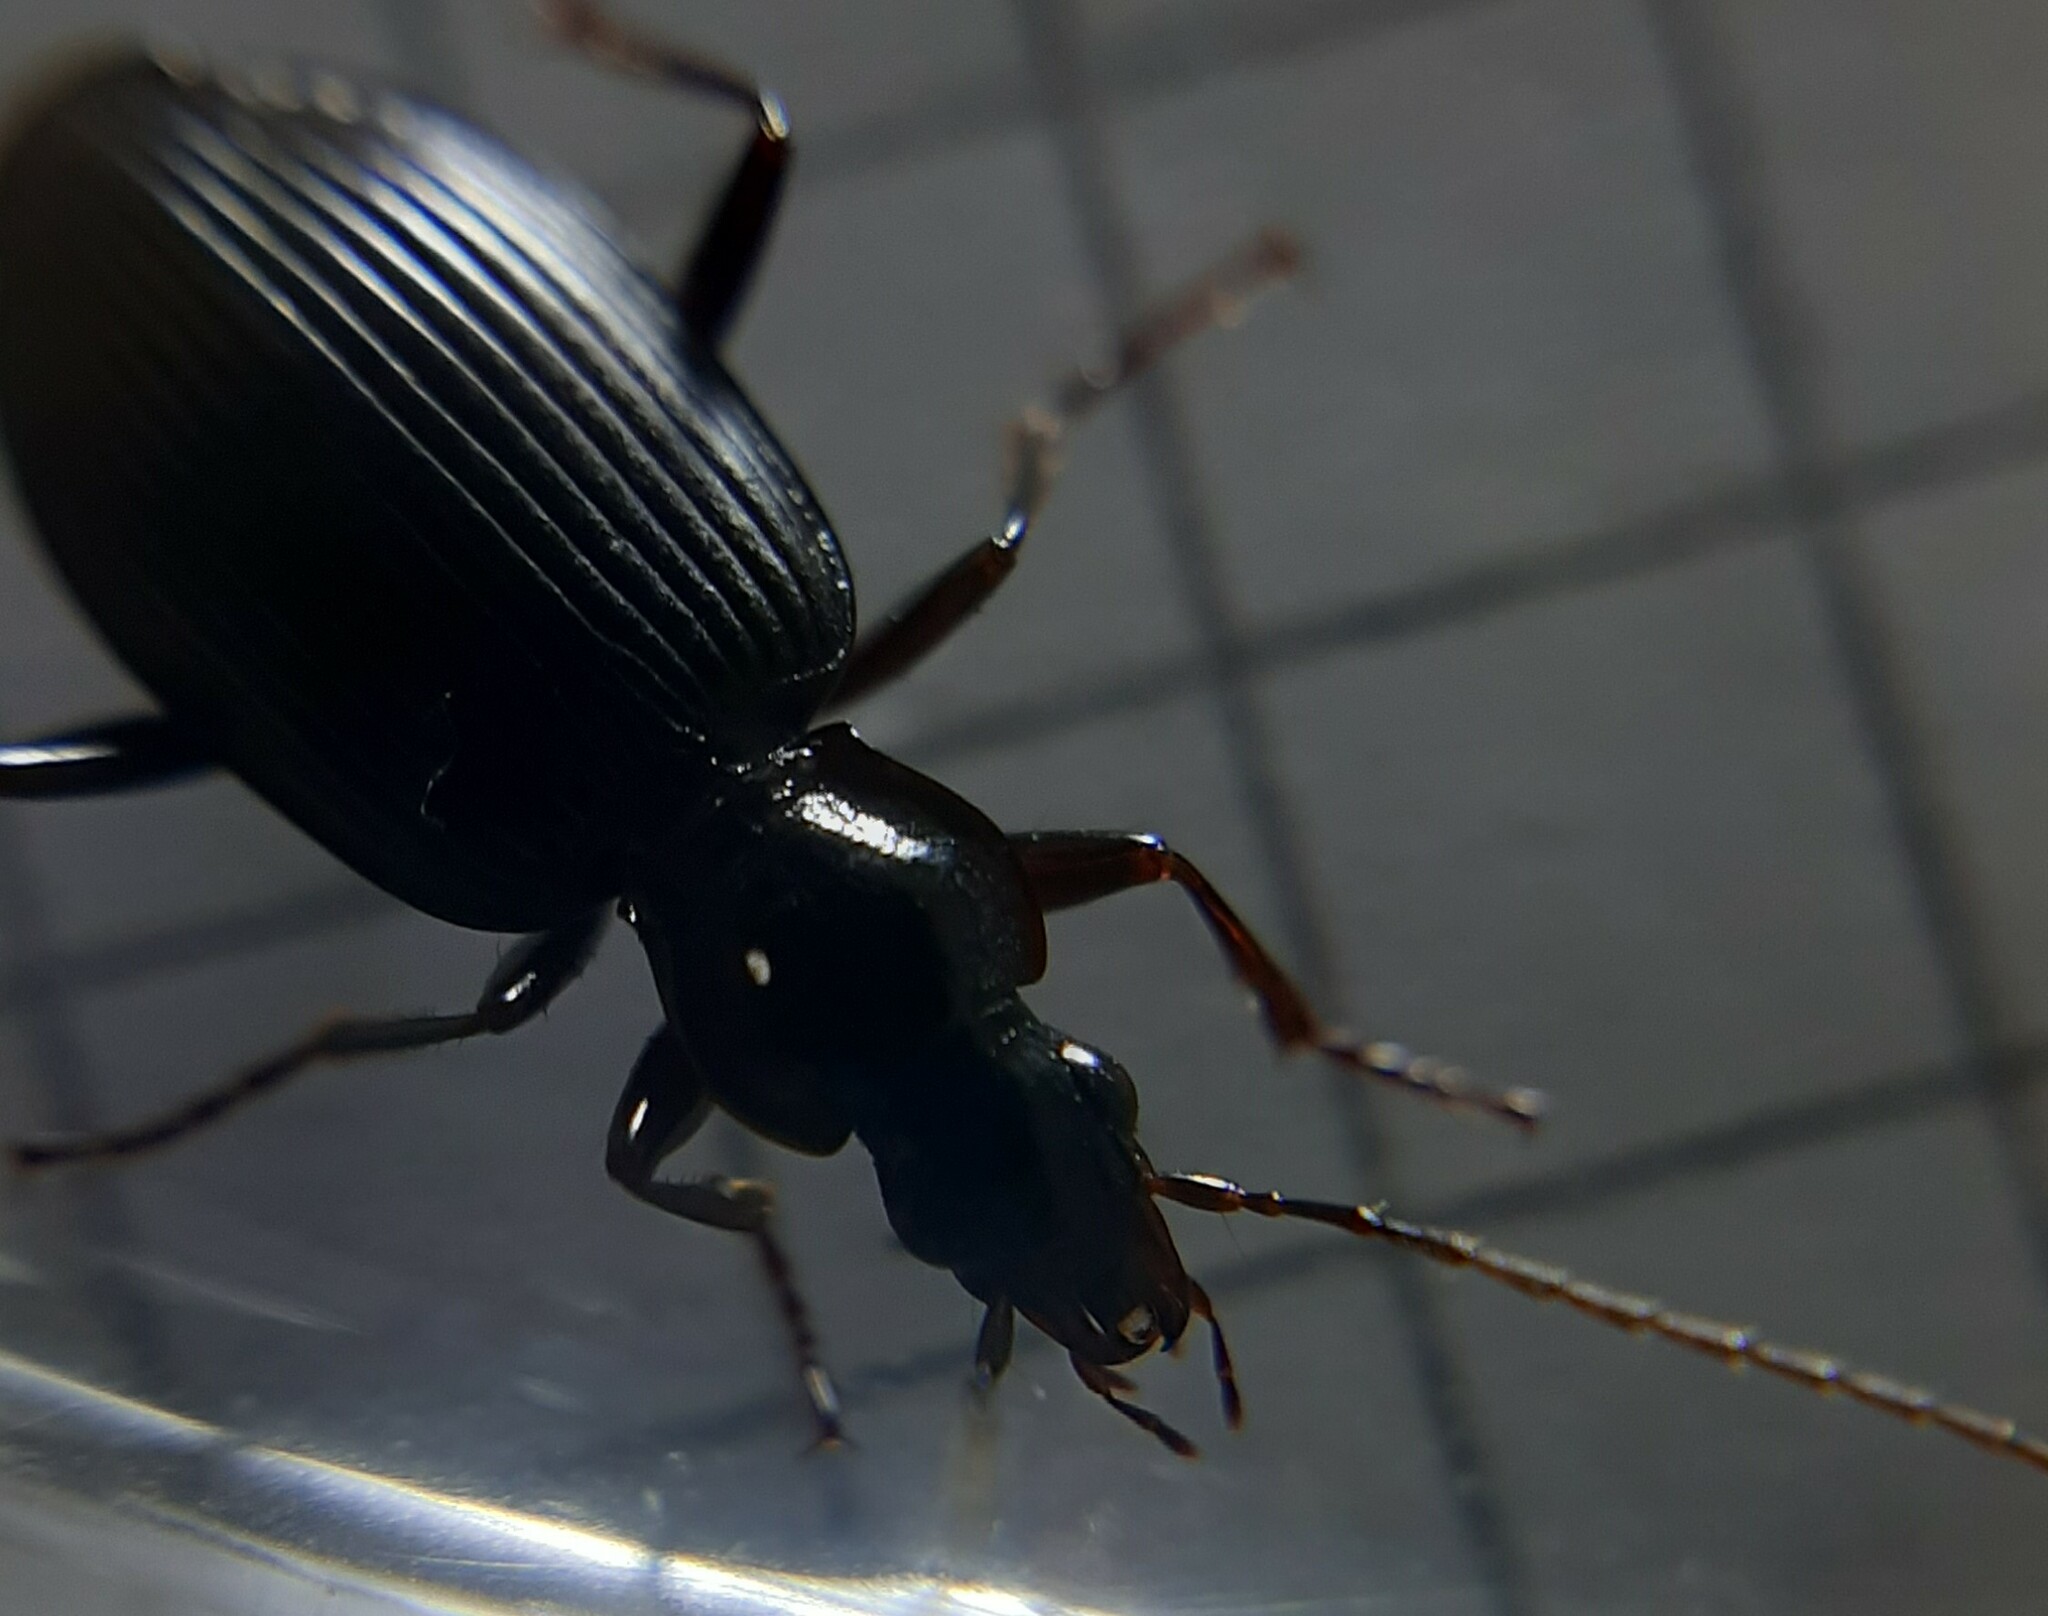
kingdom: Animalia
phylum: Arthropoda
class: Insecta
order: Coleoptera
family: Carabidae
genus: Platynus
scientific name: Platynus assimilis
